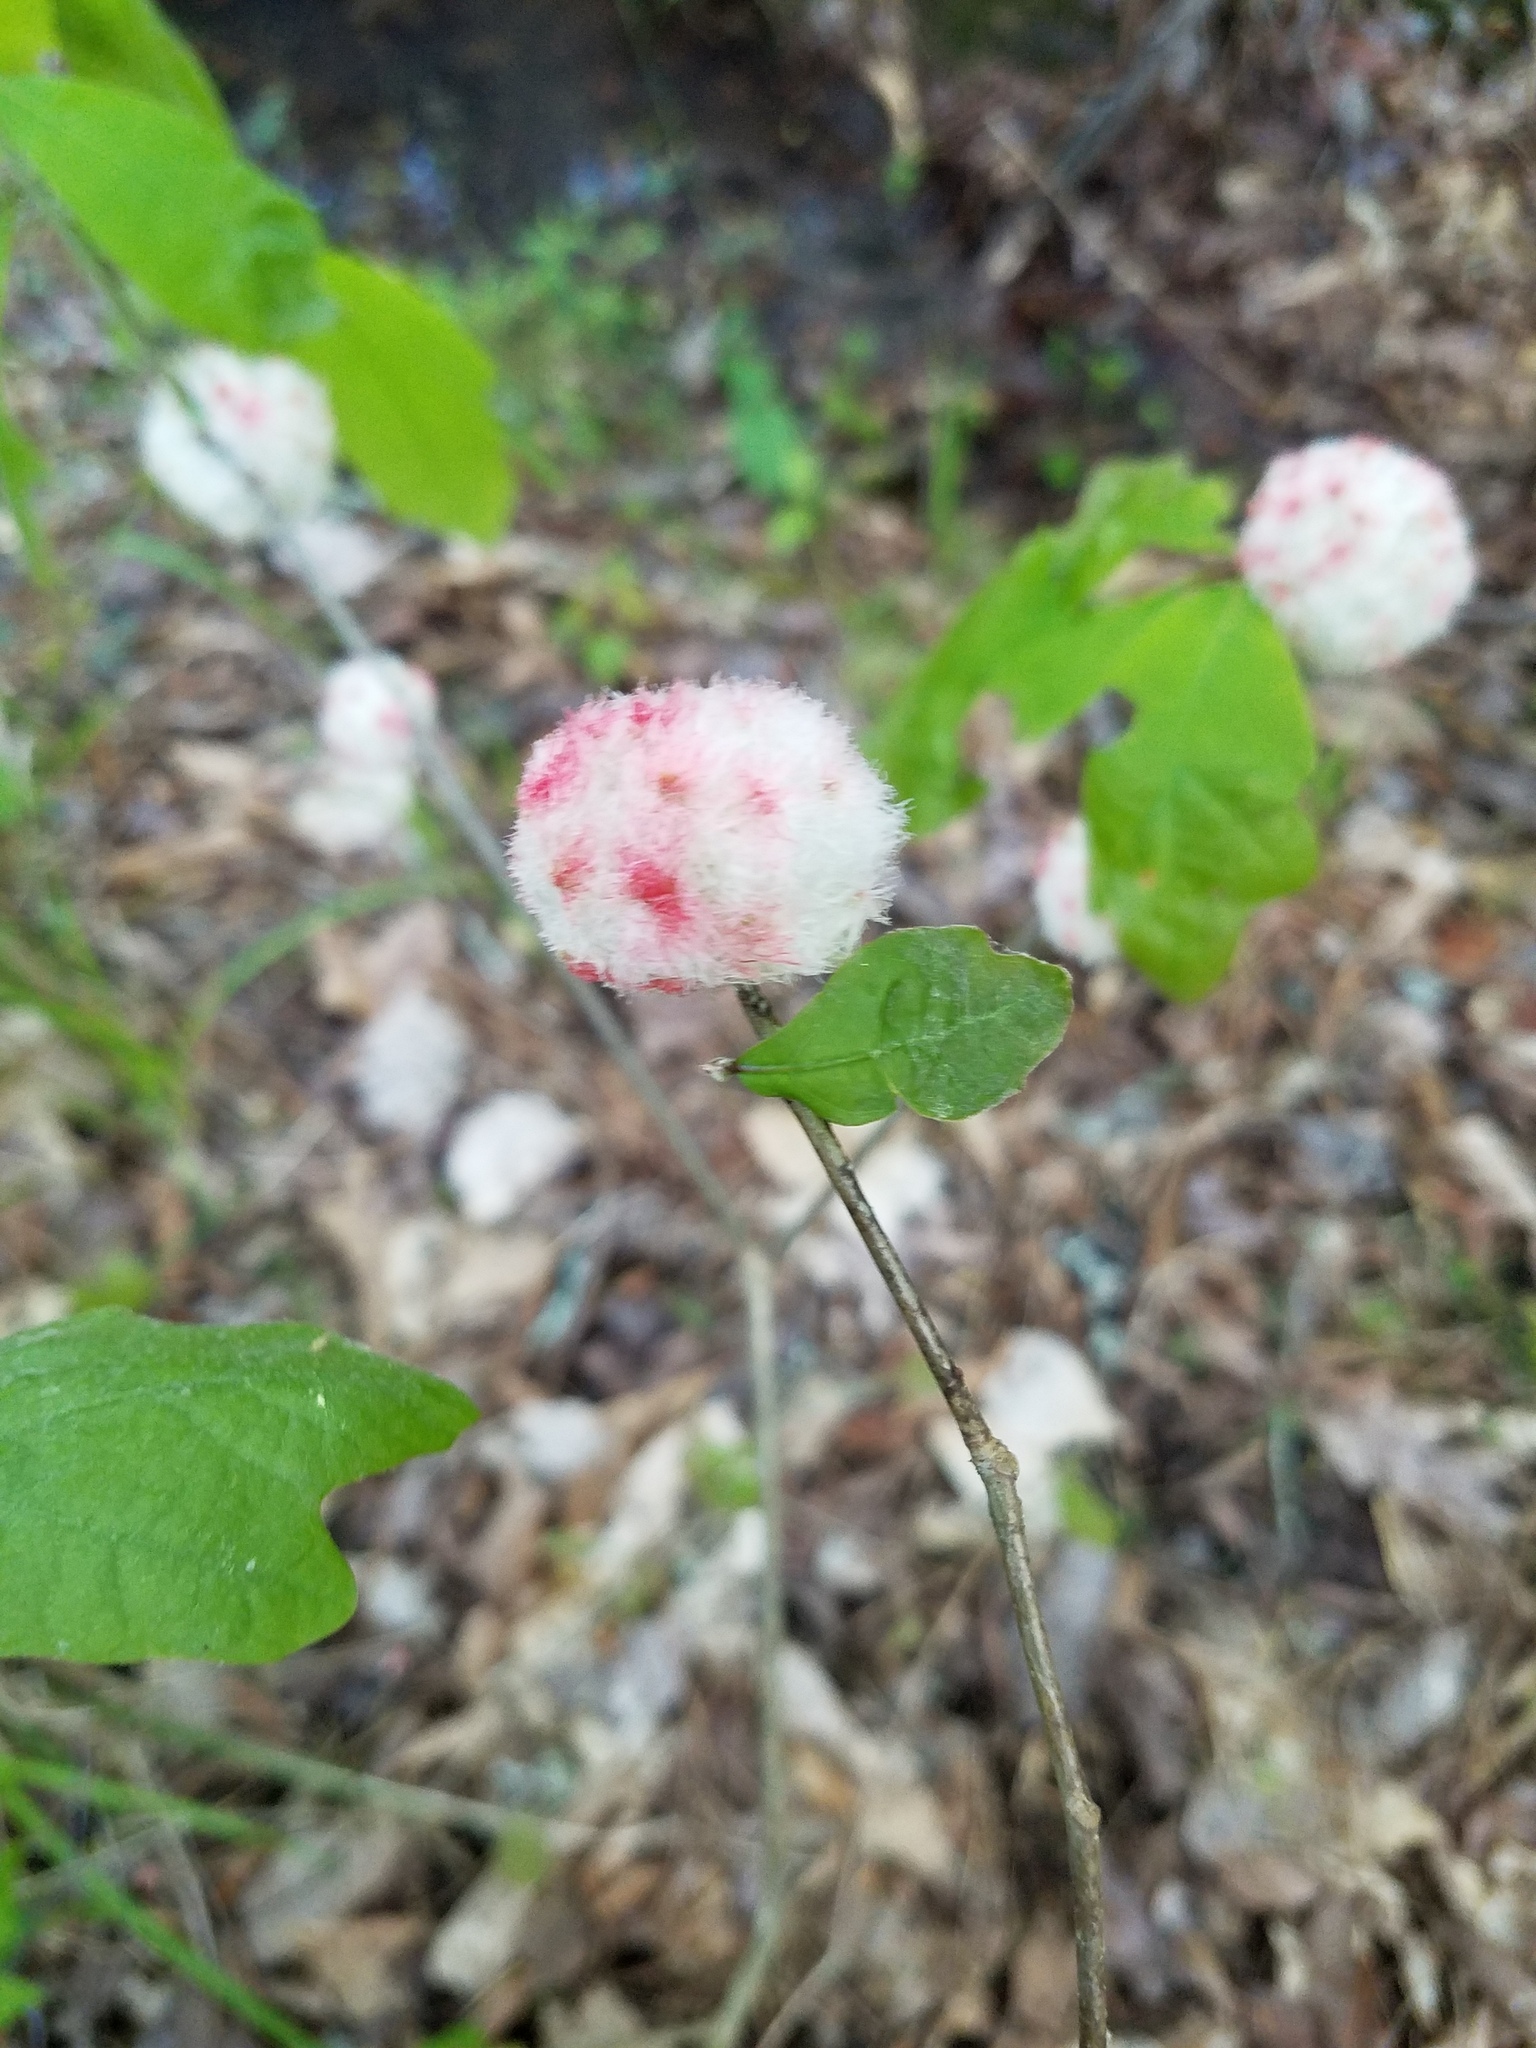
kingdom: Animalia
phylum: Arthropoda
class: Insecta
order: Hymenoptera
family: Cynipidae
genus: Callirhytis
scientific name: Callirhytis
